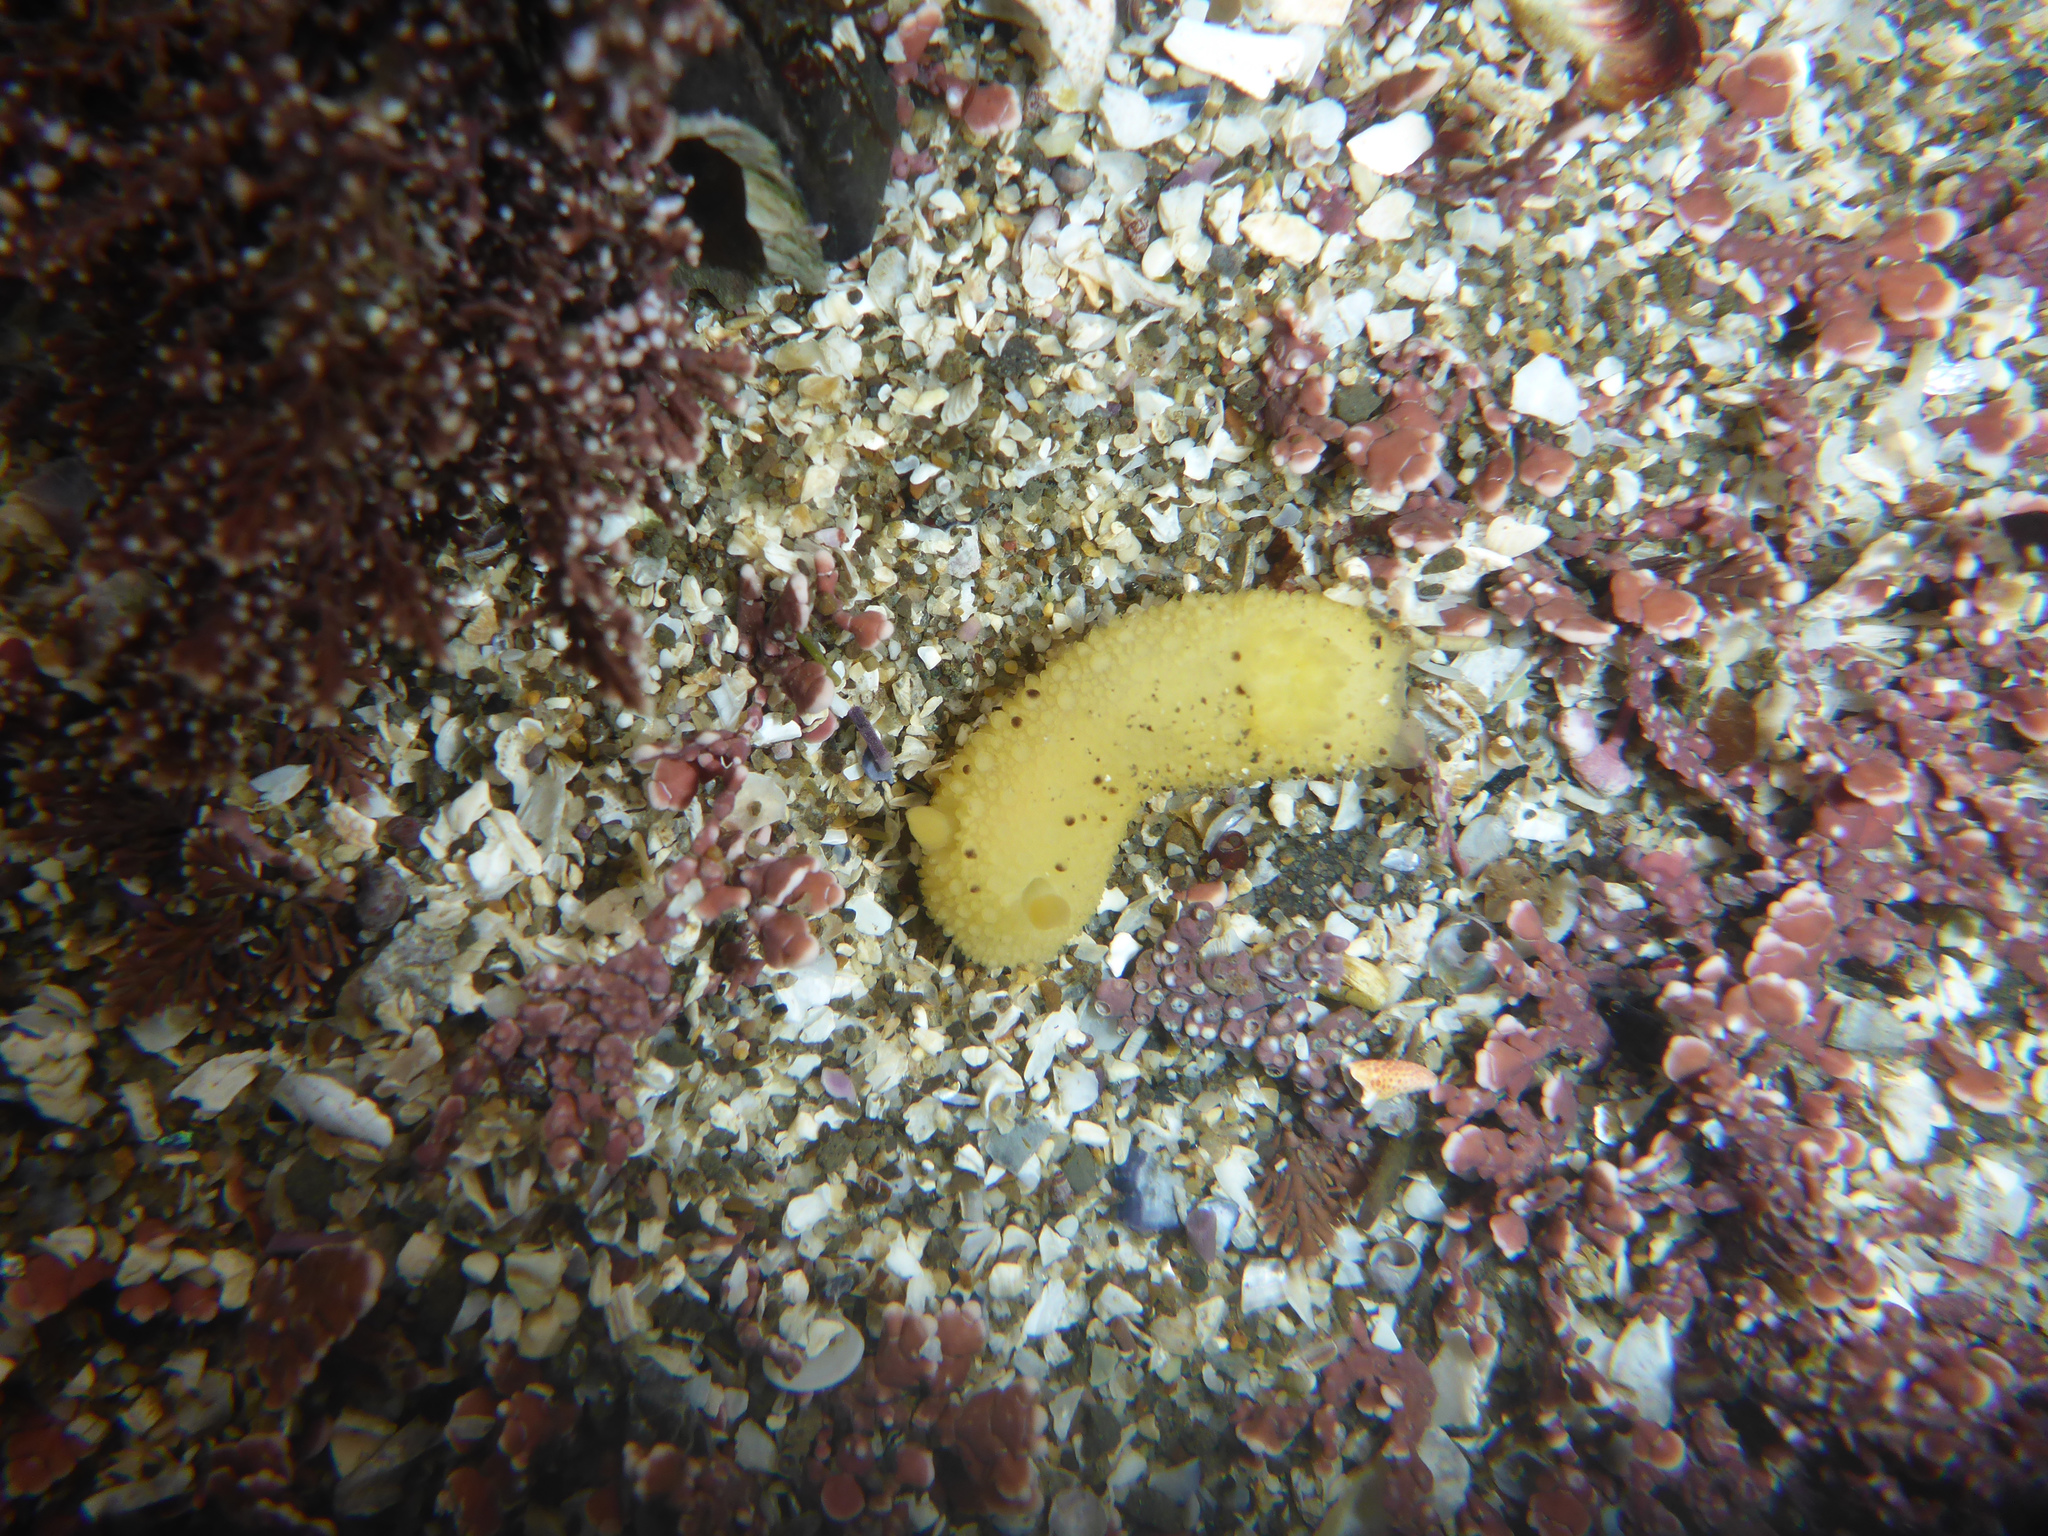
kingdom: Animalia
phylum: Mollusca
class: Gastropoda
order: Nudibranchia
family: Dorididae
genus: Doris
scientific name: Doris montereyensis
